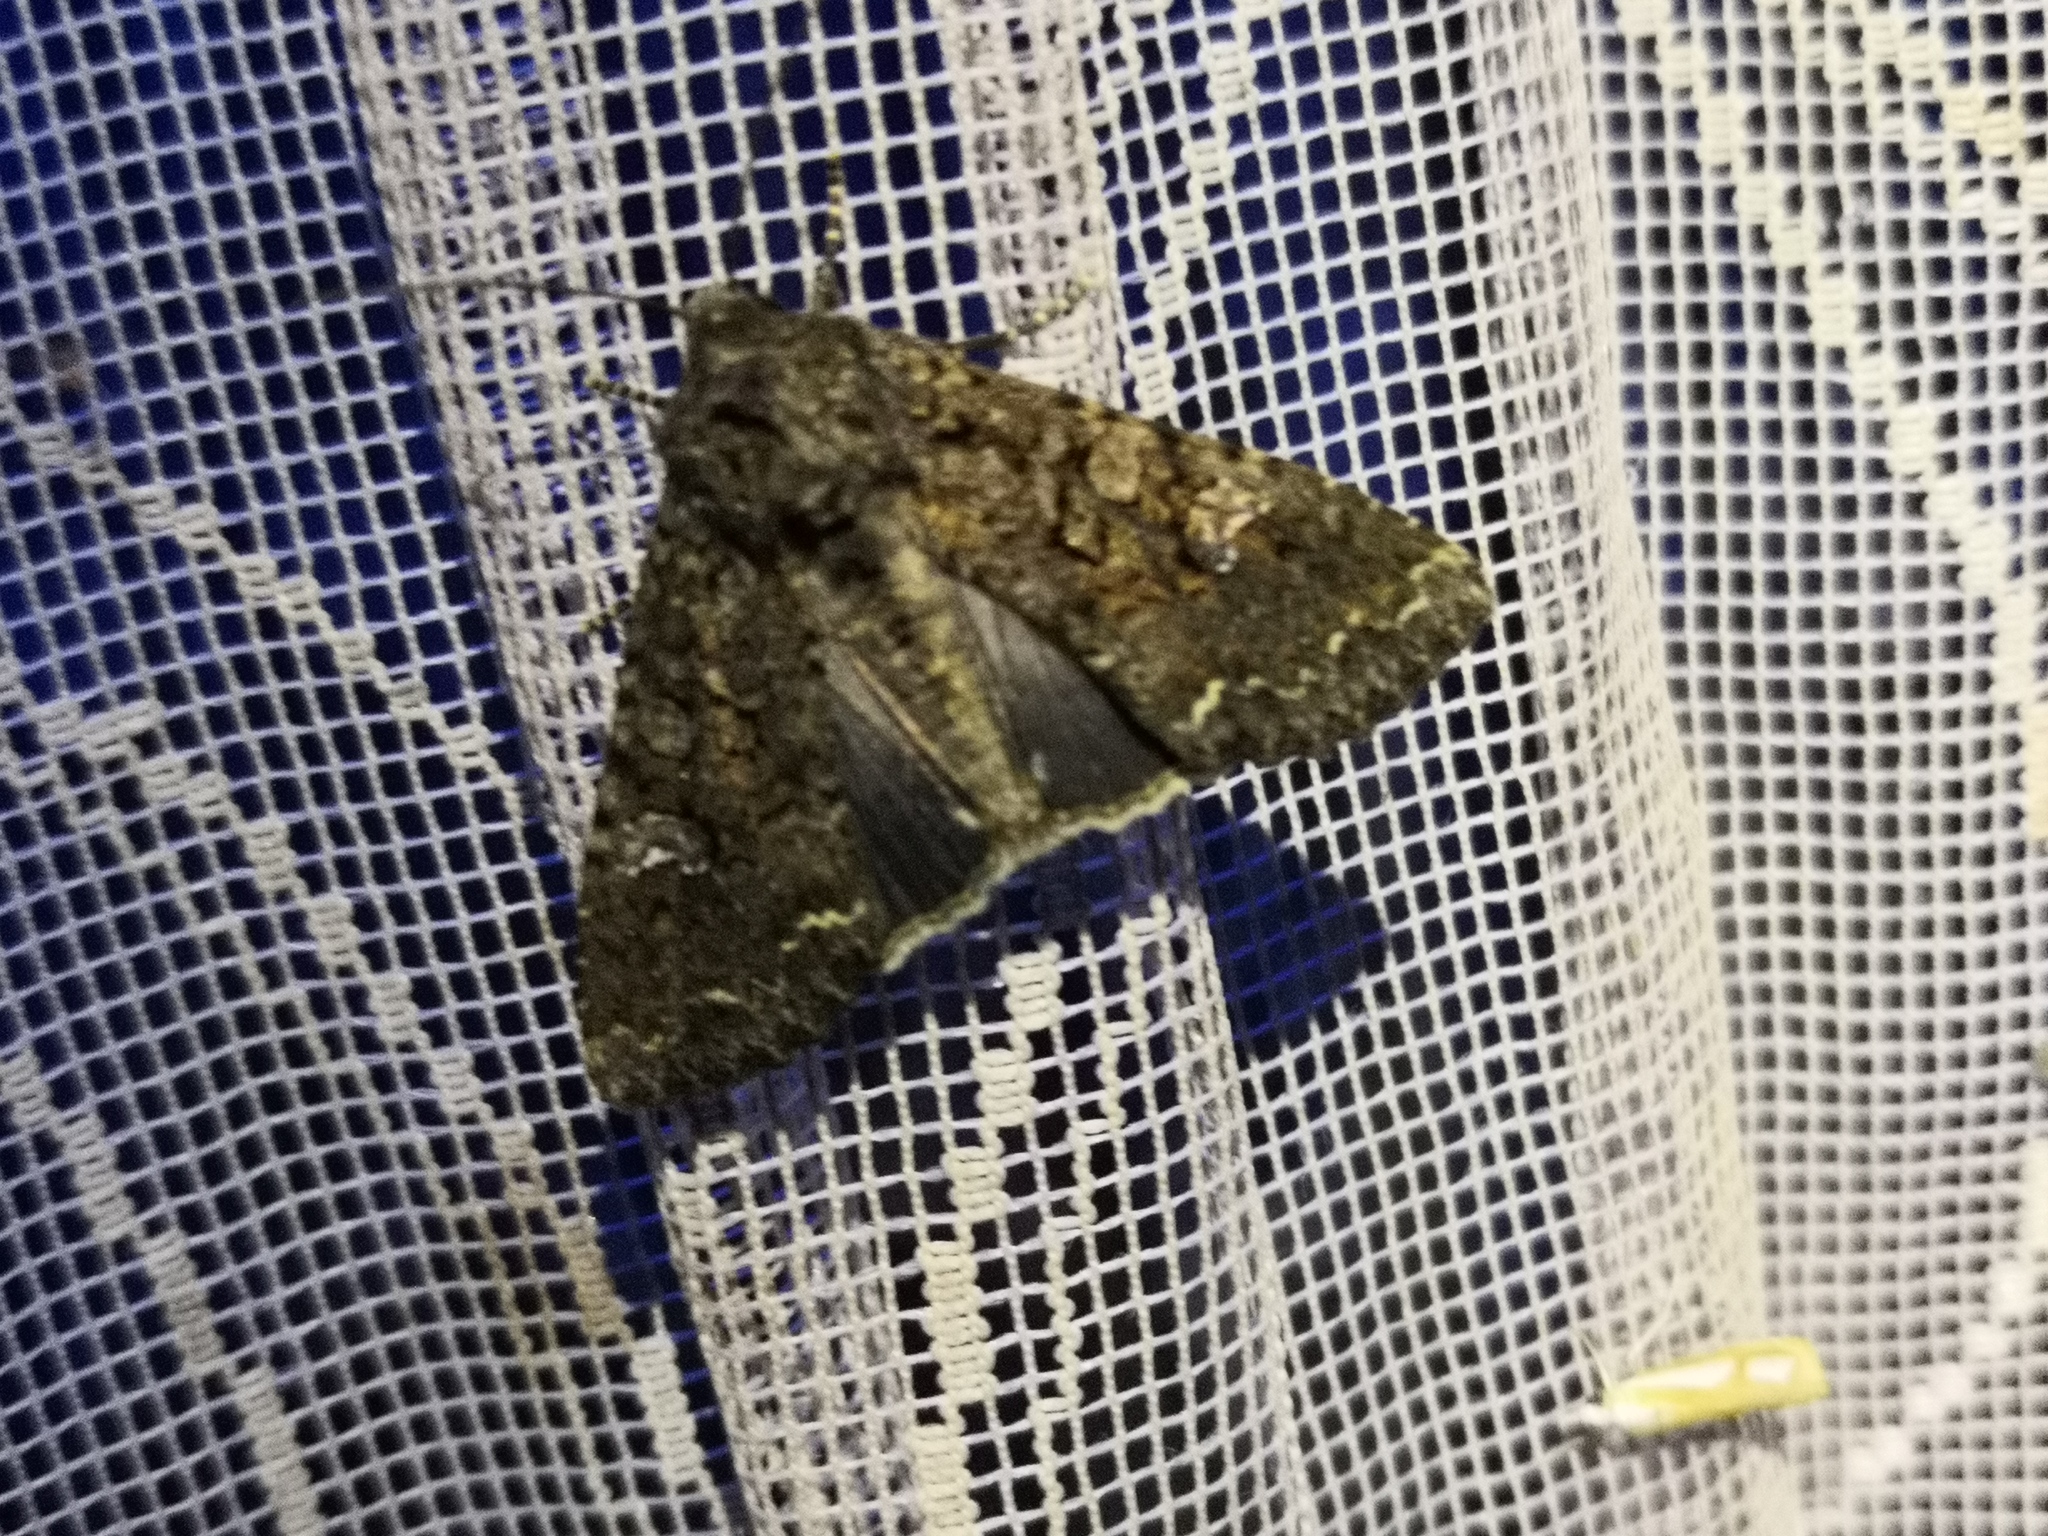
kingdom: Animalia
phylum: Arthropoda
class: Insecta
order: Lepidoptera
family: Noctuidae
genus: Mamestra
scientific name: Mamestra brassicae
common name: Cabbage moth
